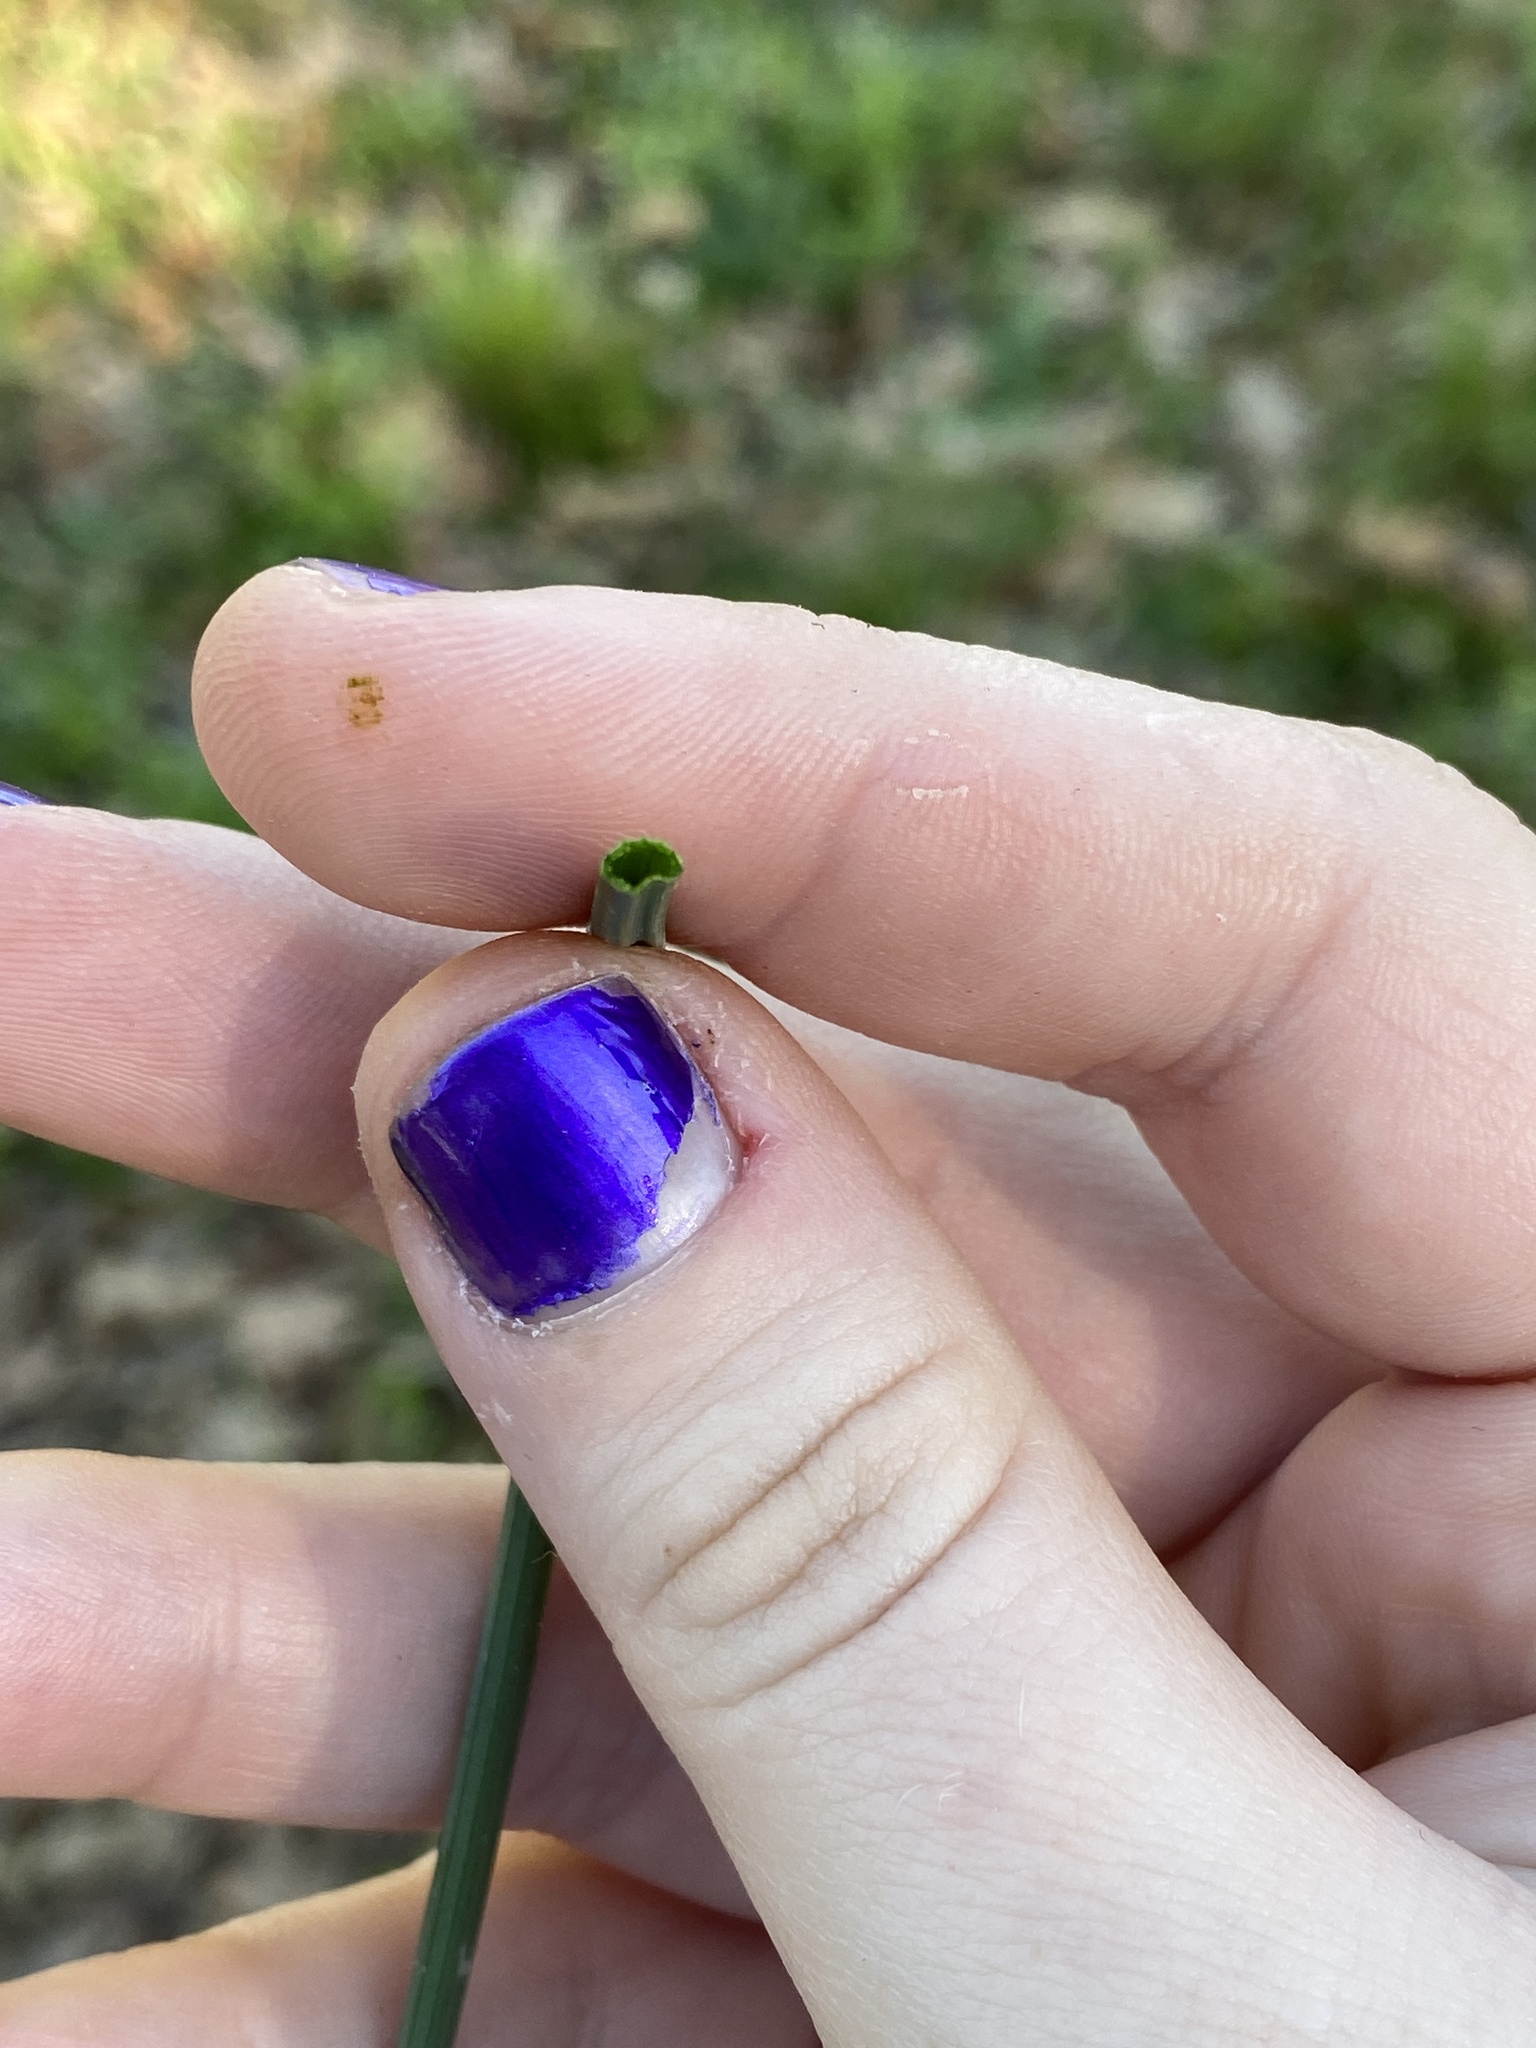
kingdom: Plantae
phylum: Tracheophyta
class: Liliopsida
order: Asparagales
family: Amaryllidaceae
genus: Allium
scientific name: Allium vineale
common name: Crow garlic
